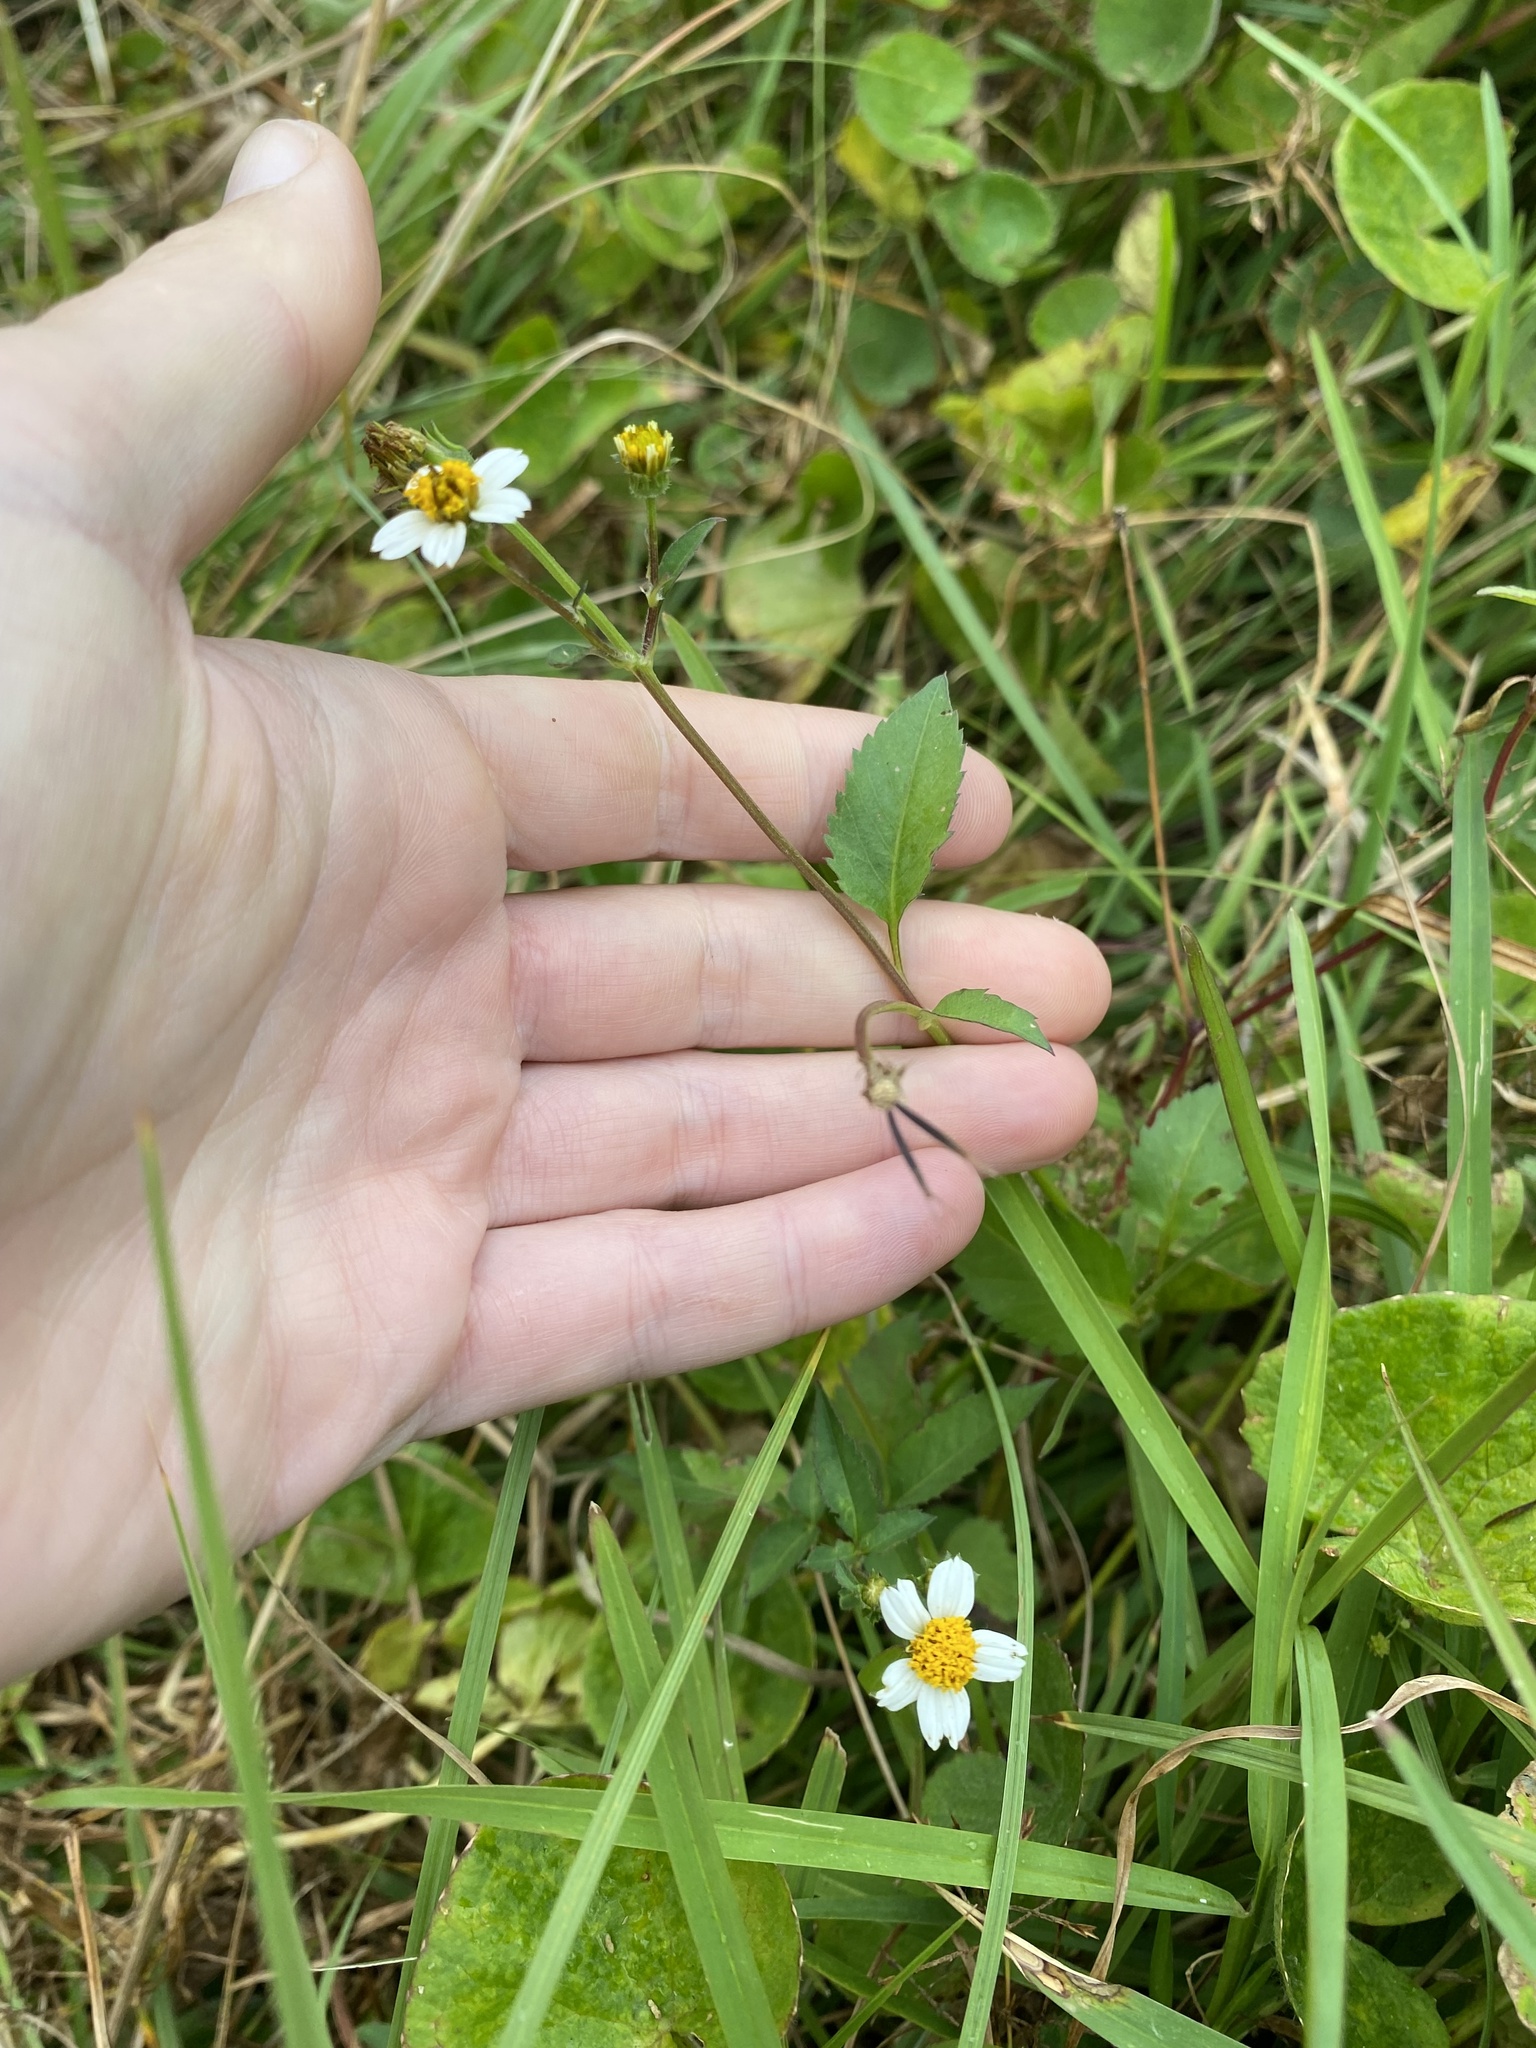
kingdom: Plantae
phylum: Tracheophyta
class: Magnoliopsida
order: Asterales
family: Asteraceae
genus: Bidens
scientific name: Bidens pilosa
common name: Black-jack
